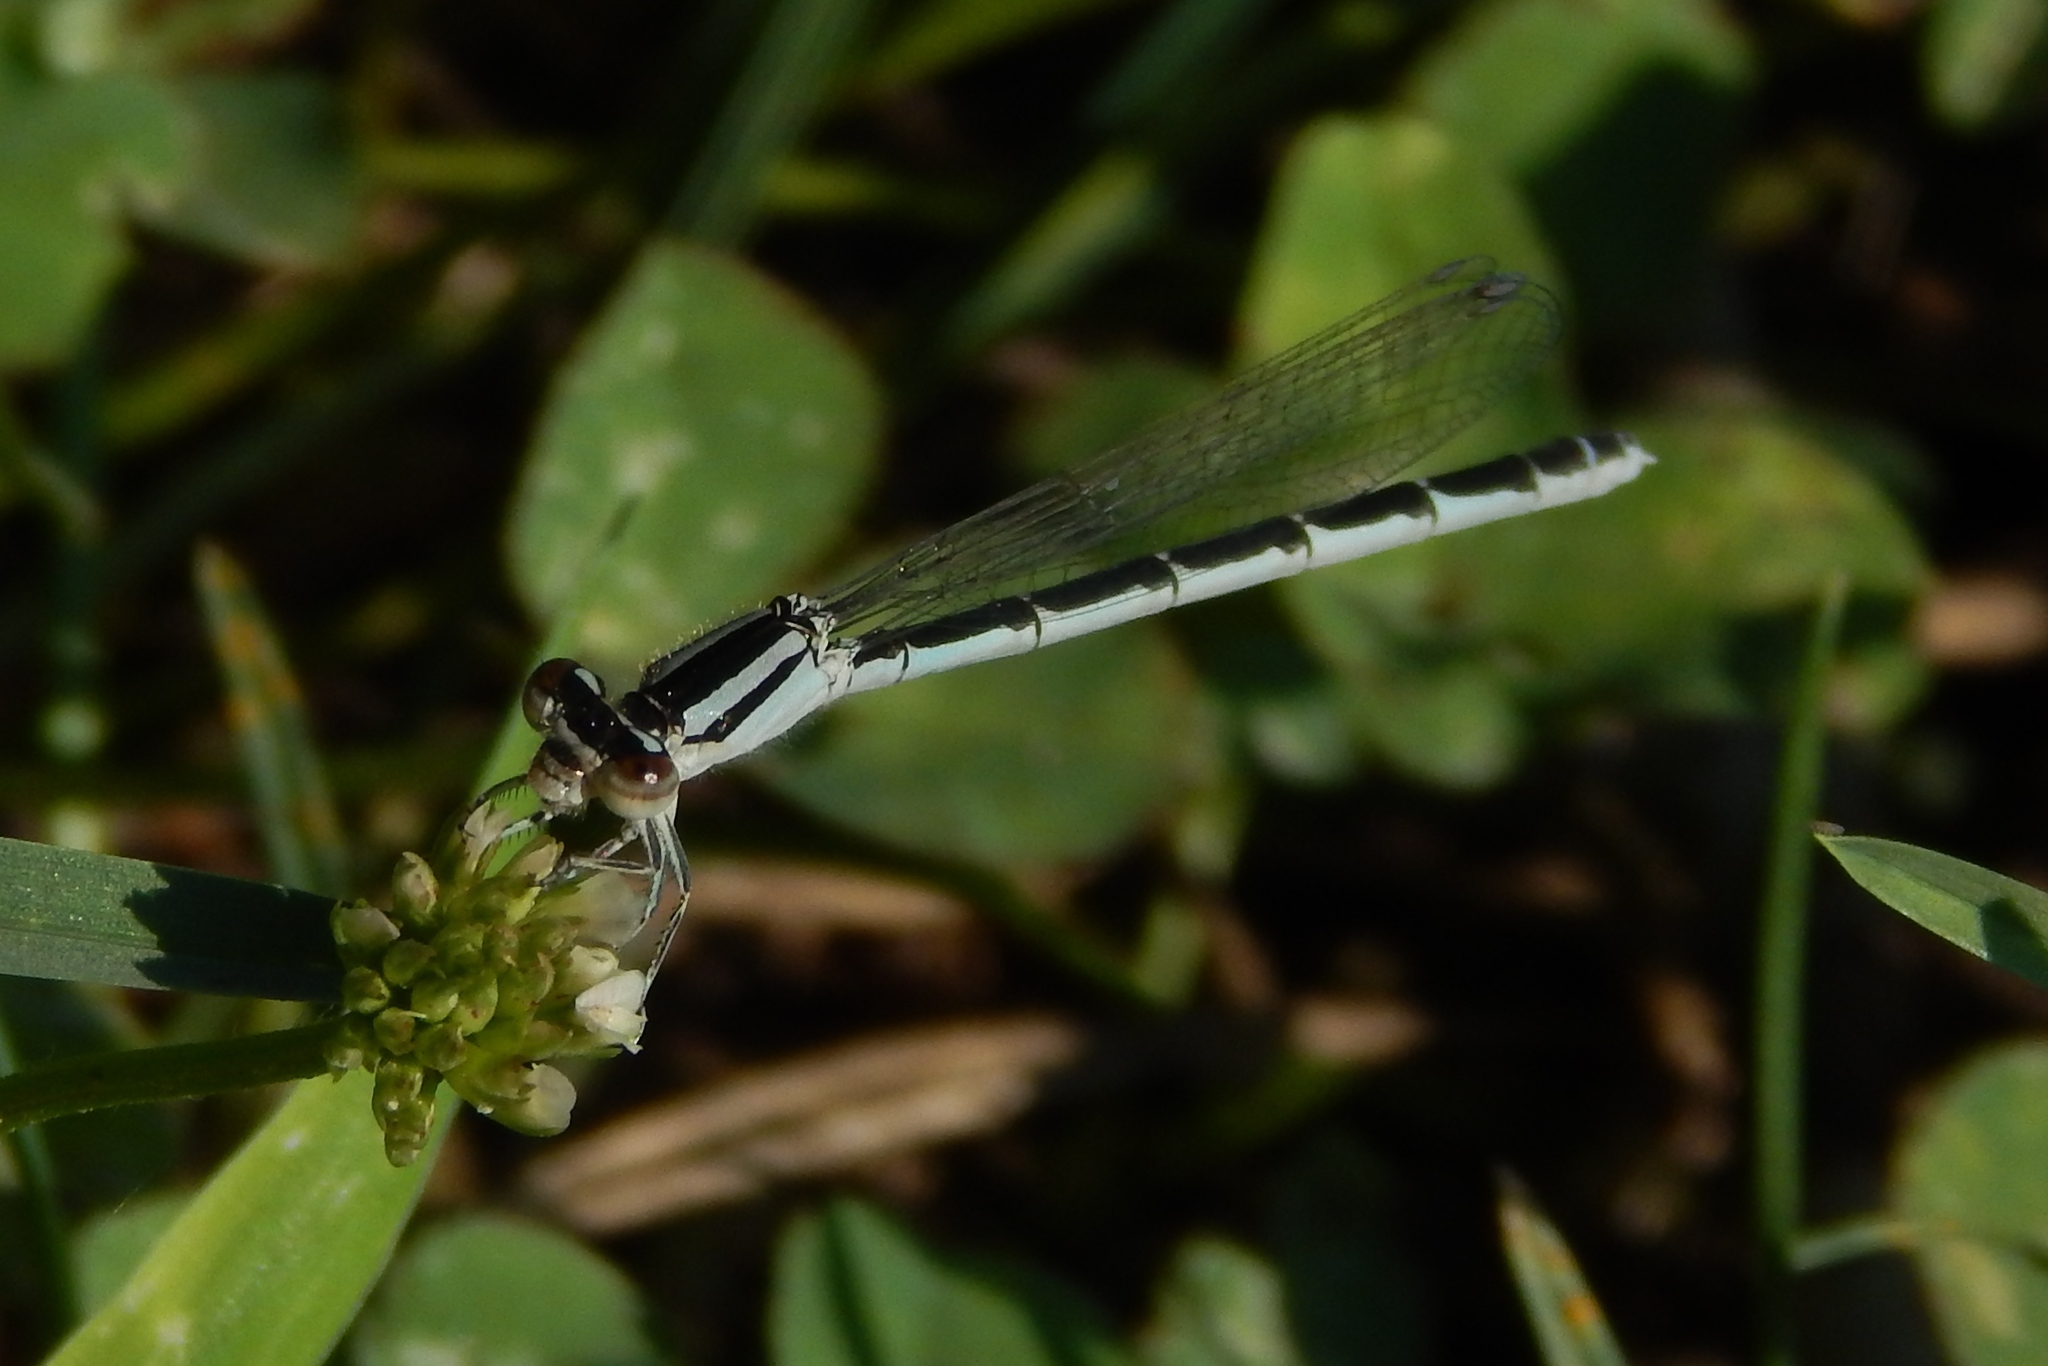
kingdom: Animalia
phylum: Arthropoda
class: Insecta
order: Odonata
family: Coenagrionidae
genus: Enallagma
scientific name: Enallagma civile
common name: Damselfly
